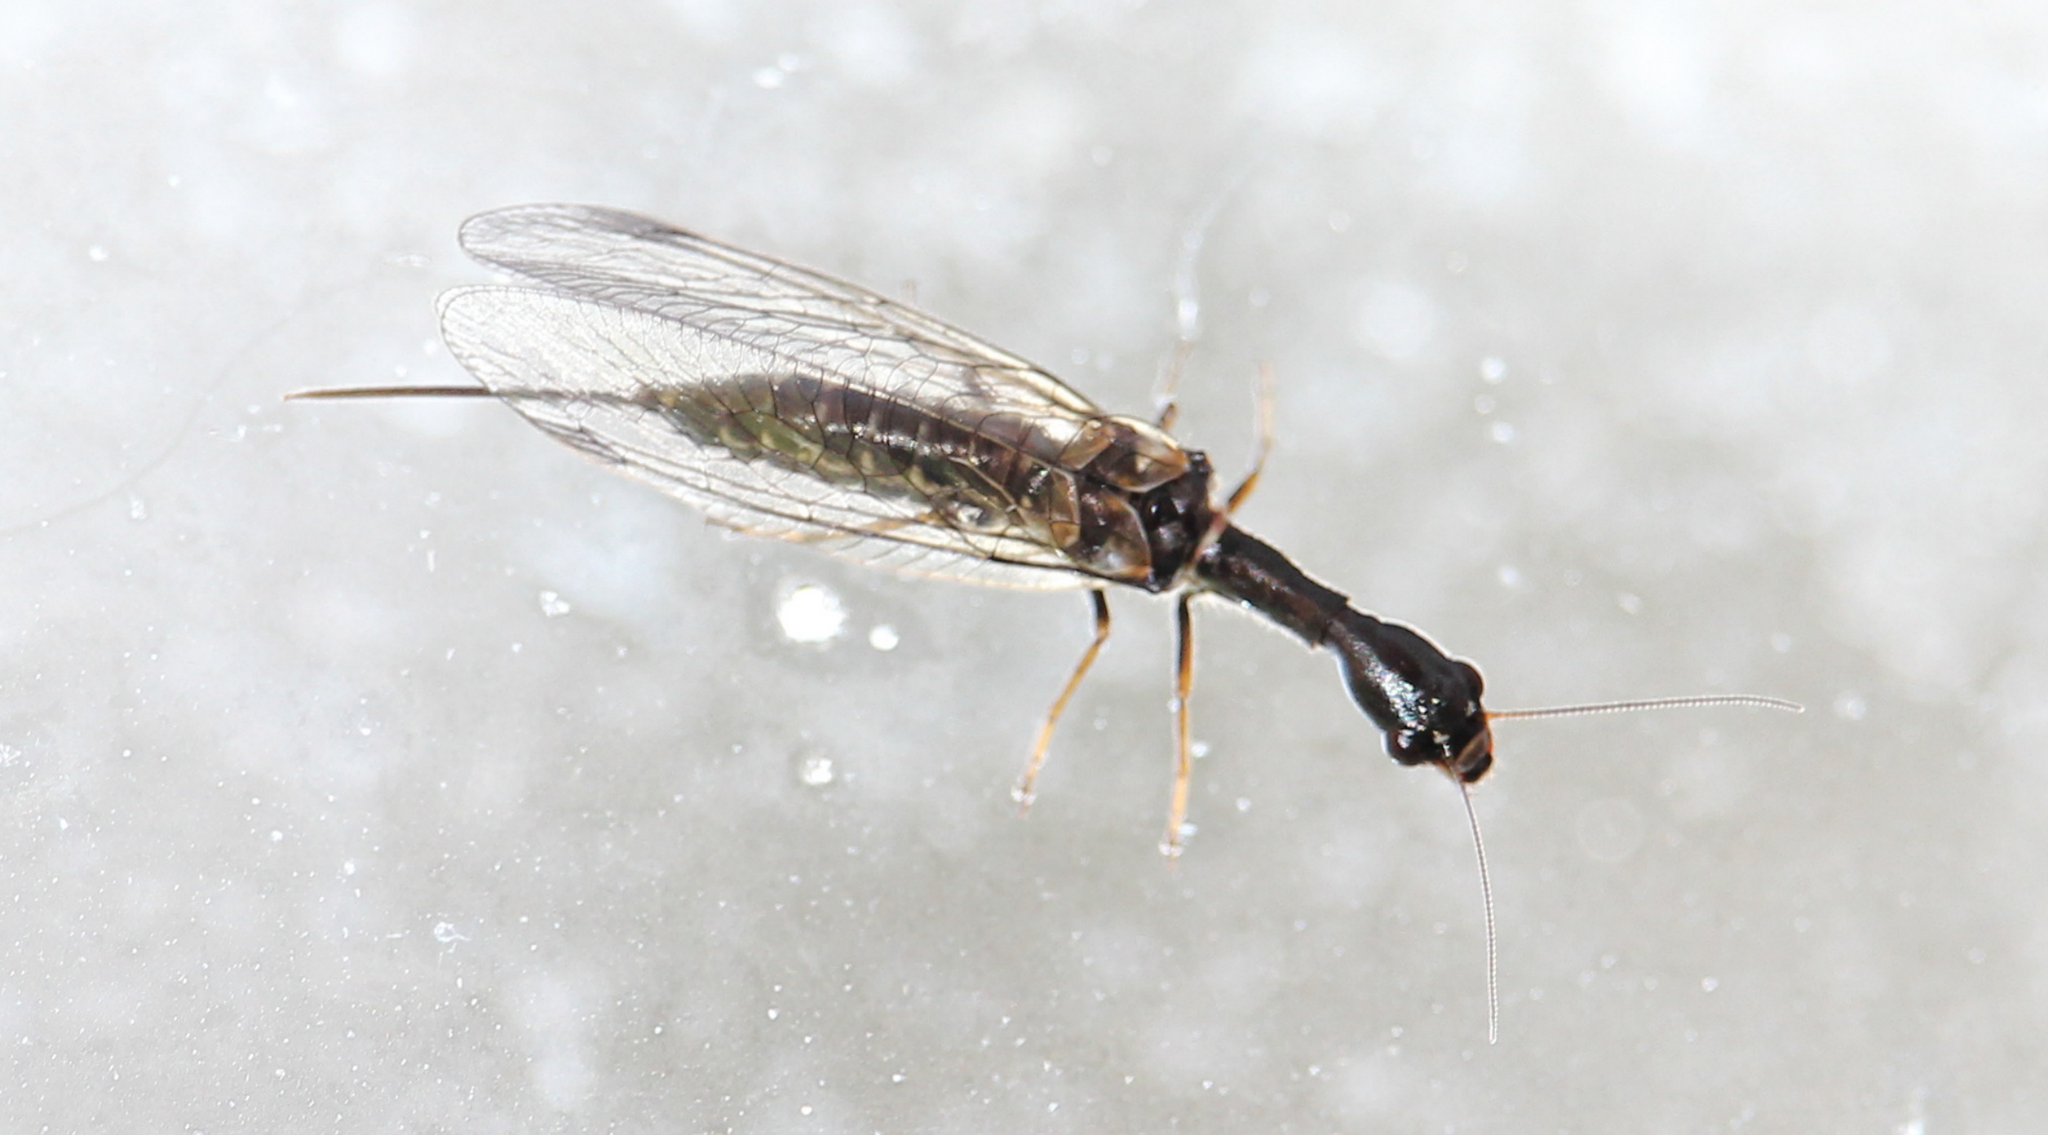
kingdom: Animalia
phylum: Arthropoda
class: Insecta
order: Raphidioptera
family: Raphidiidae
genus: Phaeostigma
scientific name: Phaeostigma notatum
